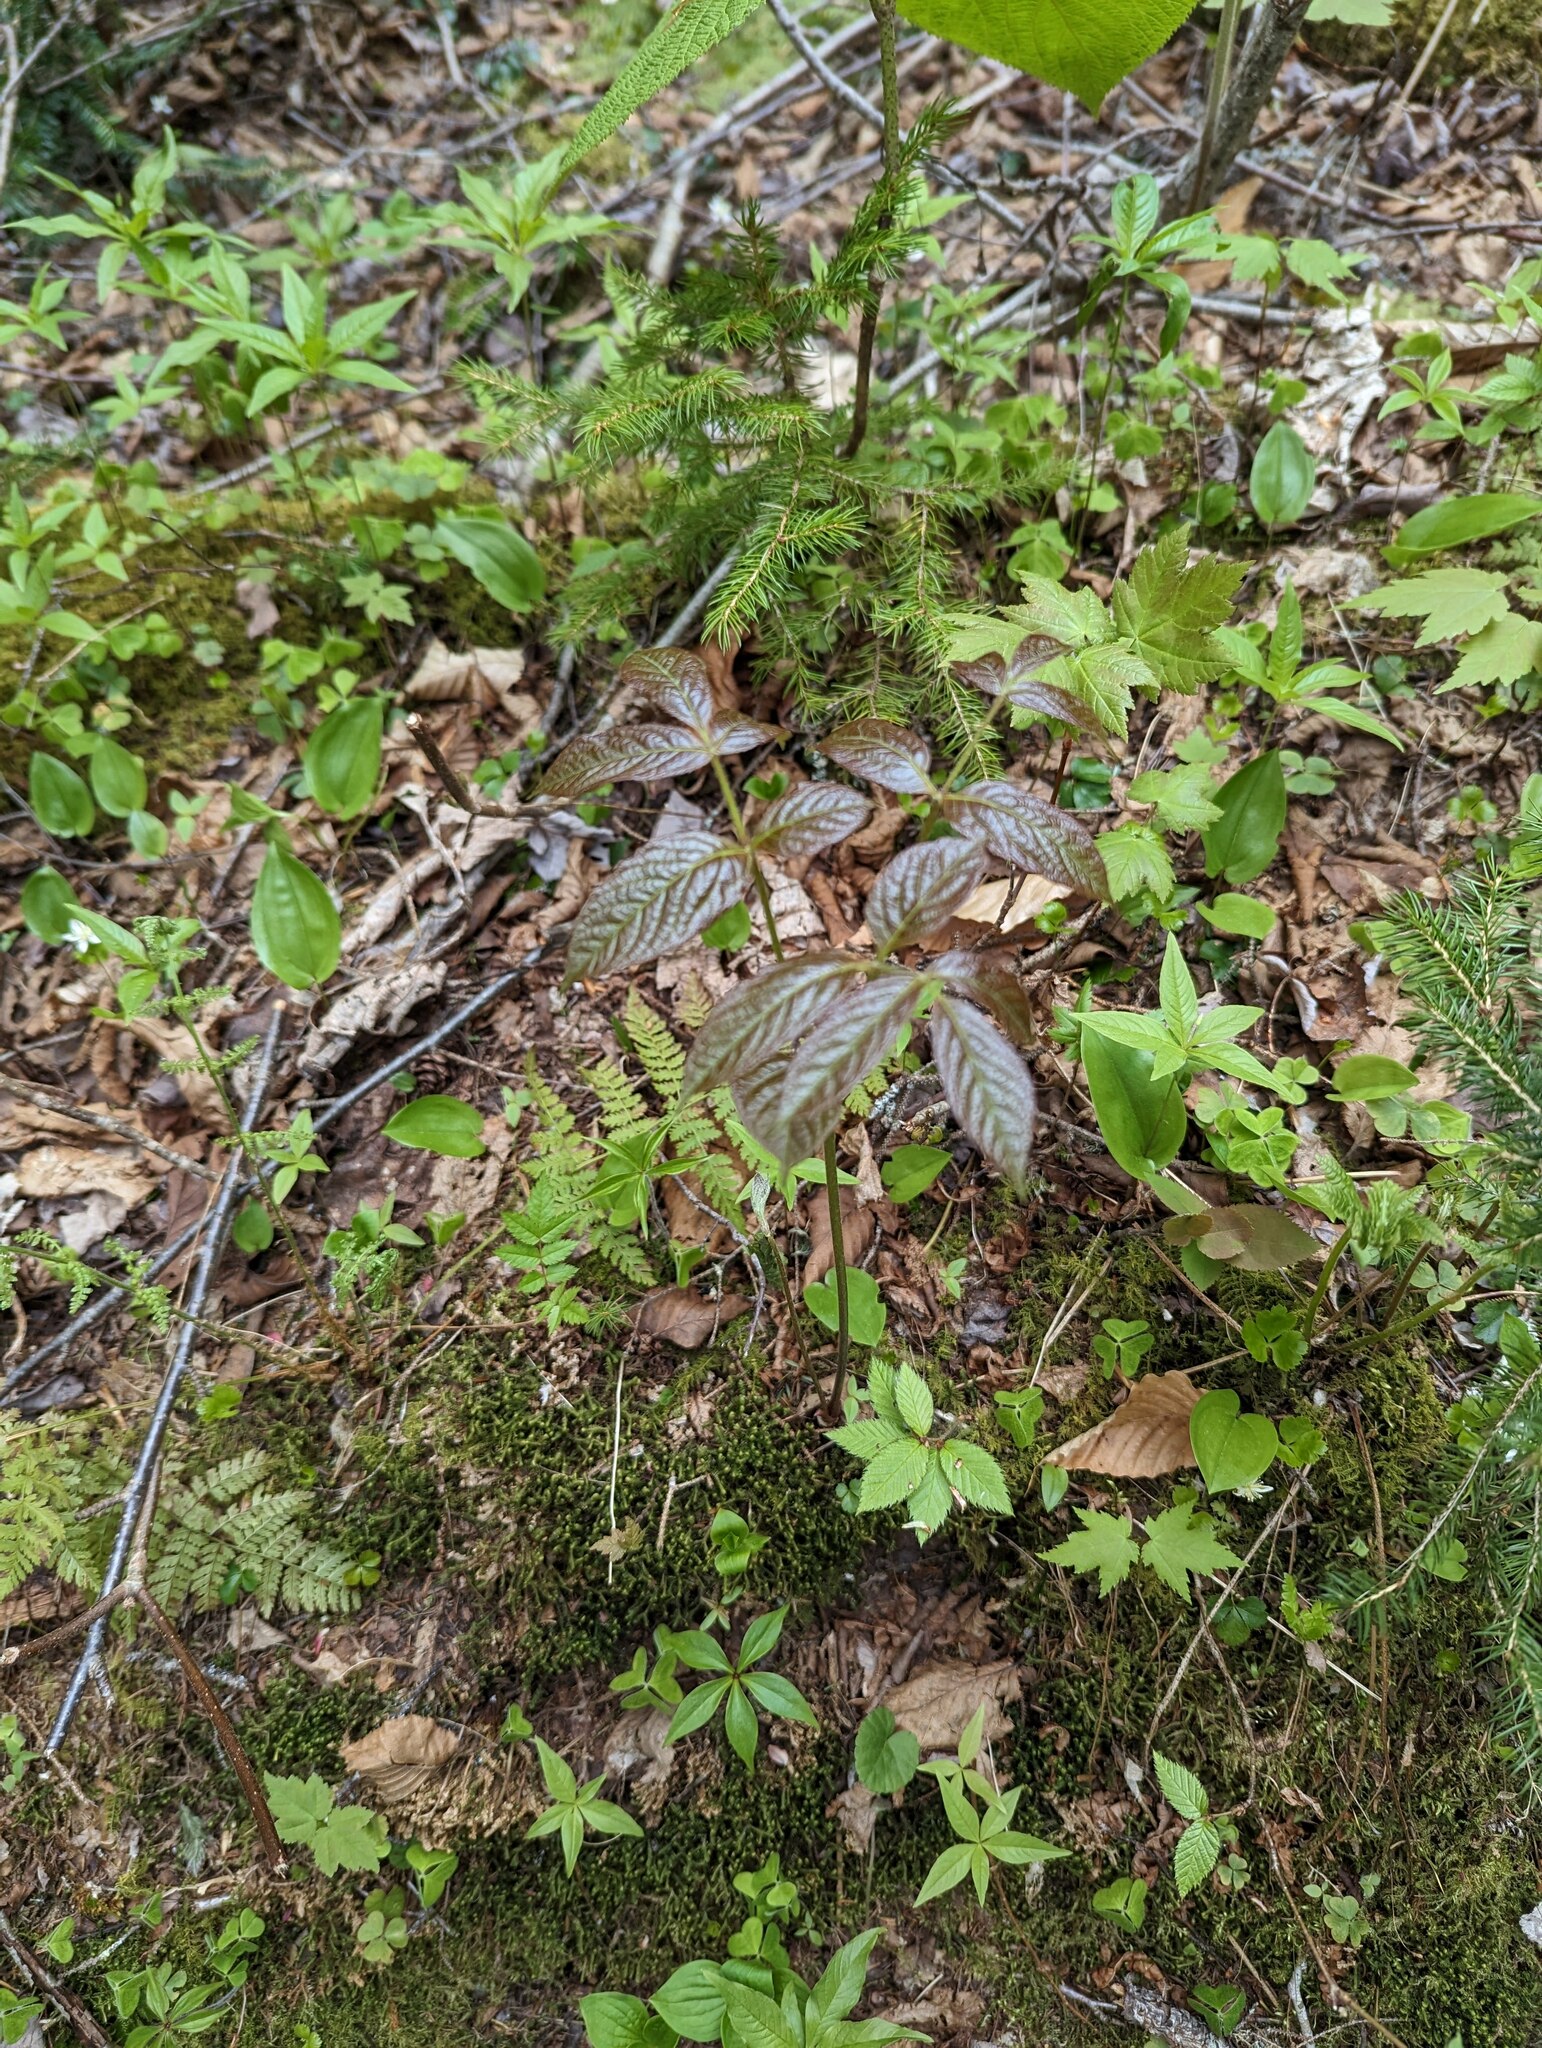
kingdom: Plantae
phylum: Tracheophyta
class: Magnoliopsida
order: Apiales
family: Araliaceae
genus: Aralia
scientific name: Aralia nudicaulis
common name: Wild sarsaparilla
